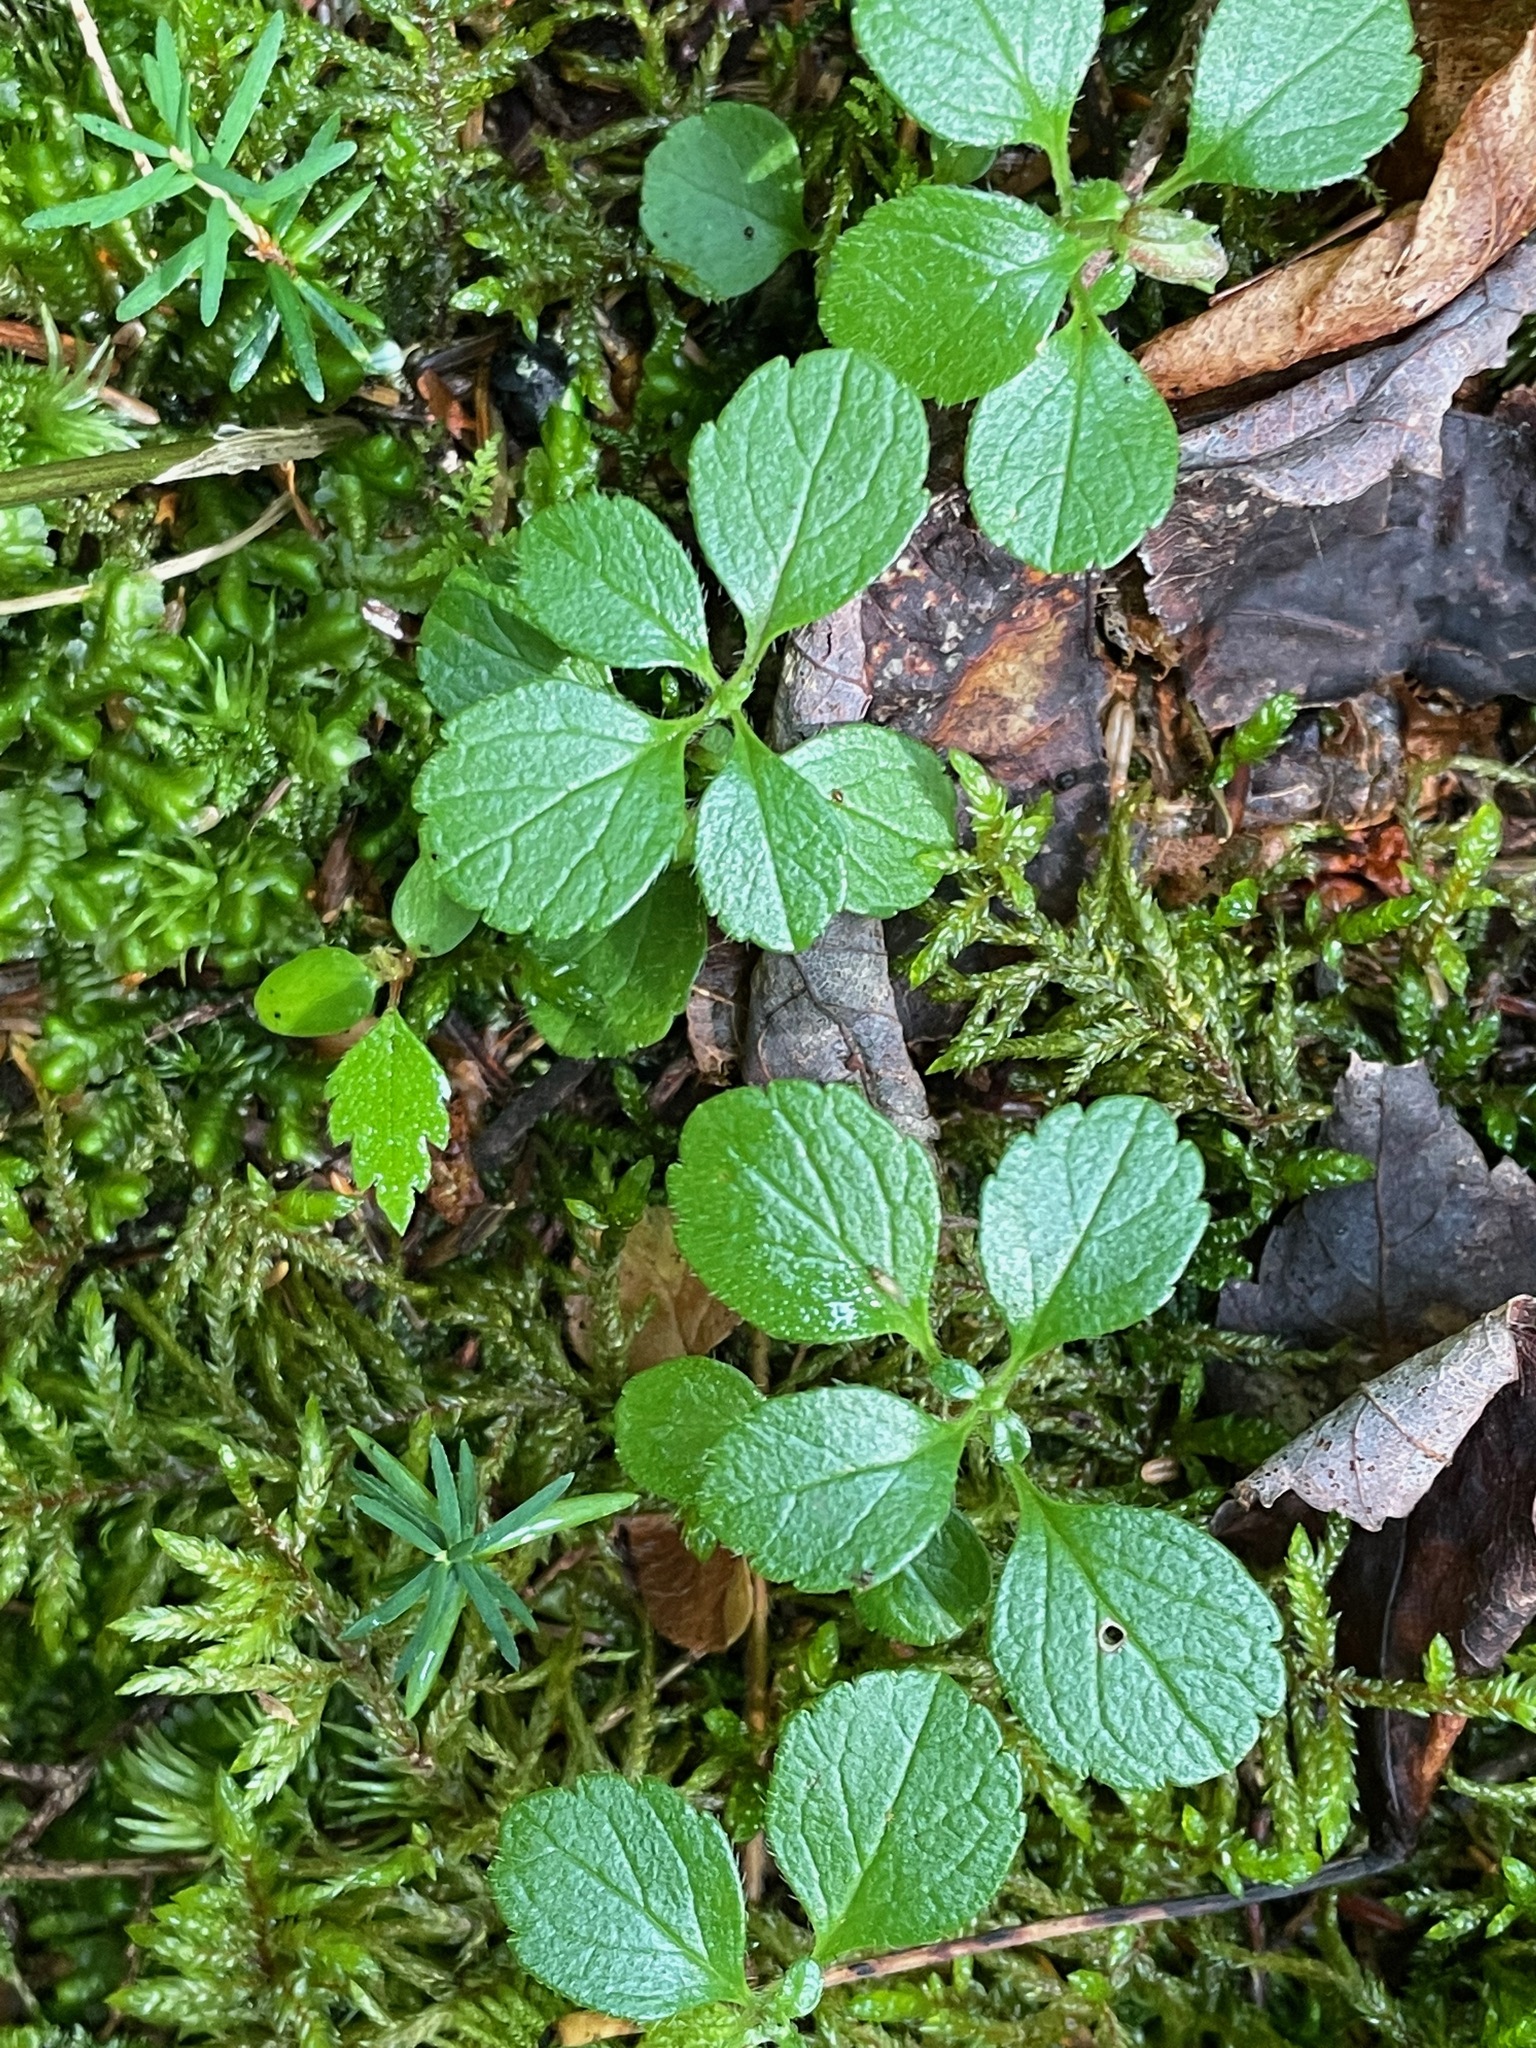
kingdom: Plantae
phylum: Tracheophyta
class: Magnoliopsida
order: Dipsacales
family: Caprifoliaceae
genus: Linnaea
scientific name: Linnaea borealis
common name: Twinflower
